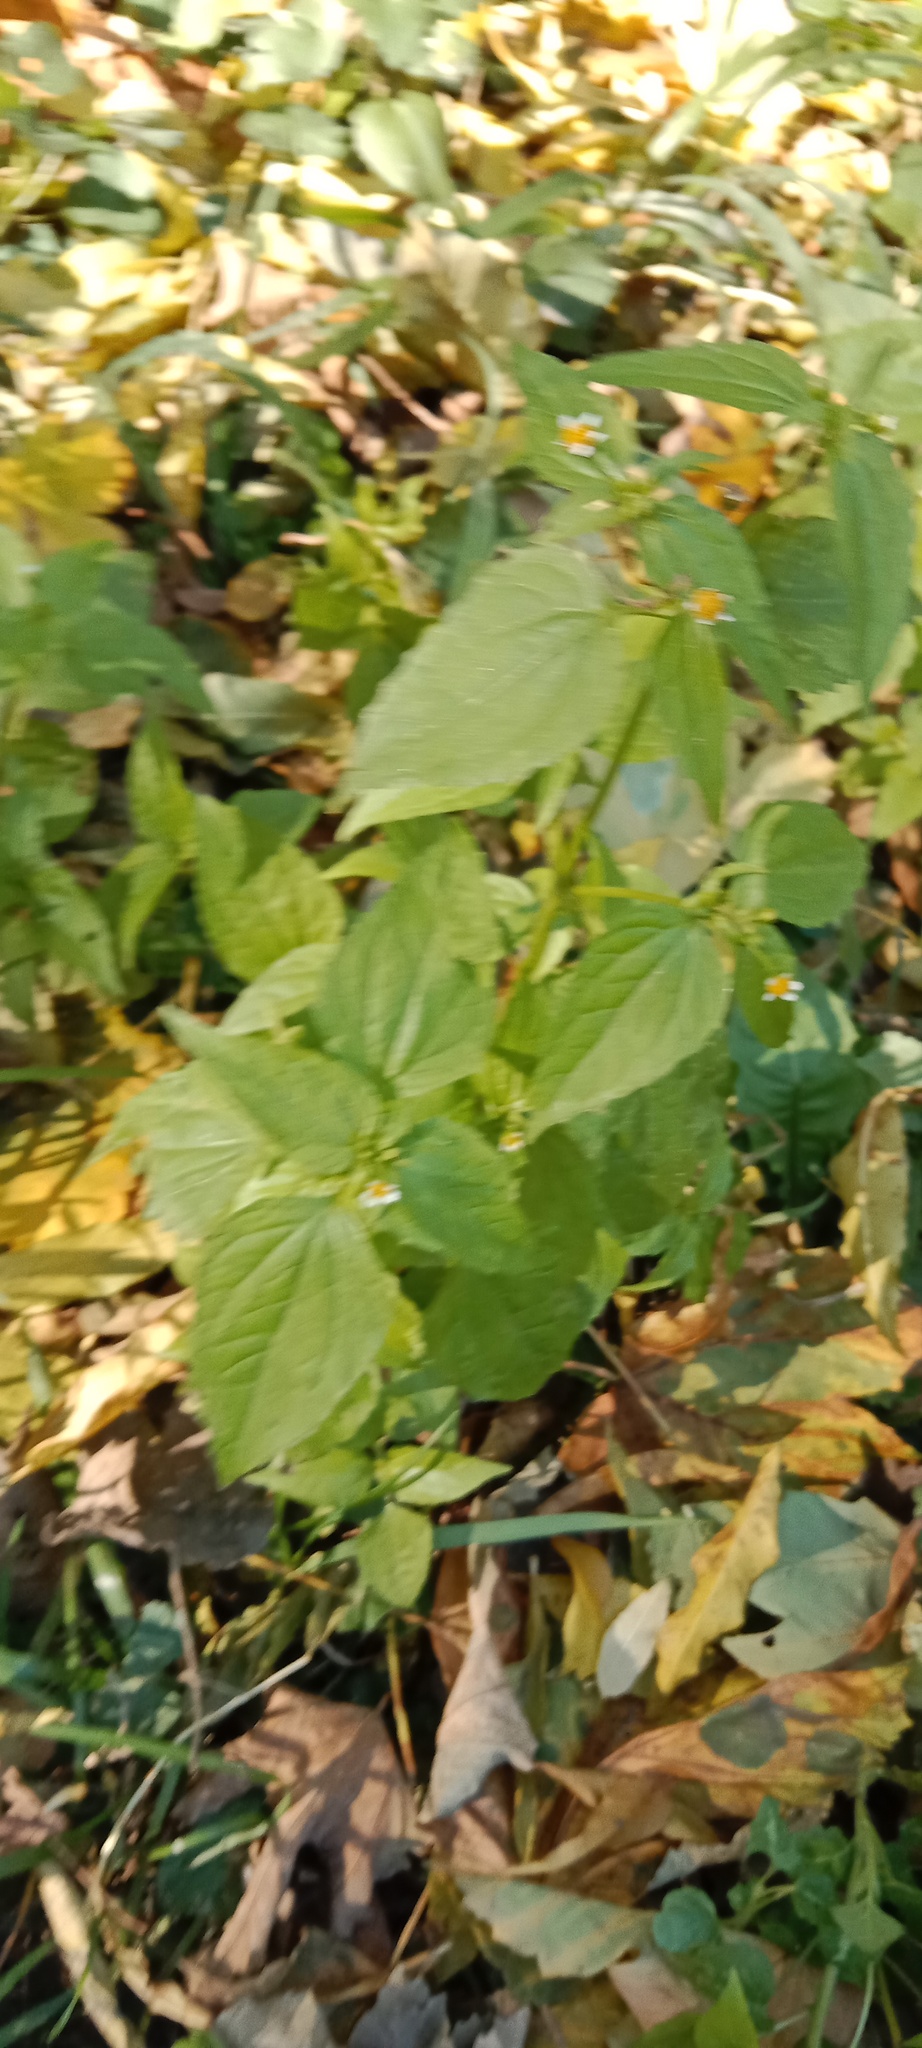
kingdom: Plantae
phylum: Tracheophyta
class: Magnoliopsida
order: Asterales
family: Asteraceae
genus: Galinsoga
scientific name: Galinsoga parviflora
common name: Gallant soldier
